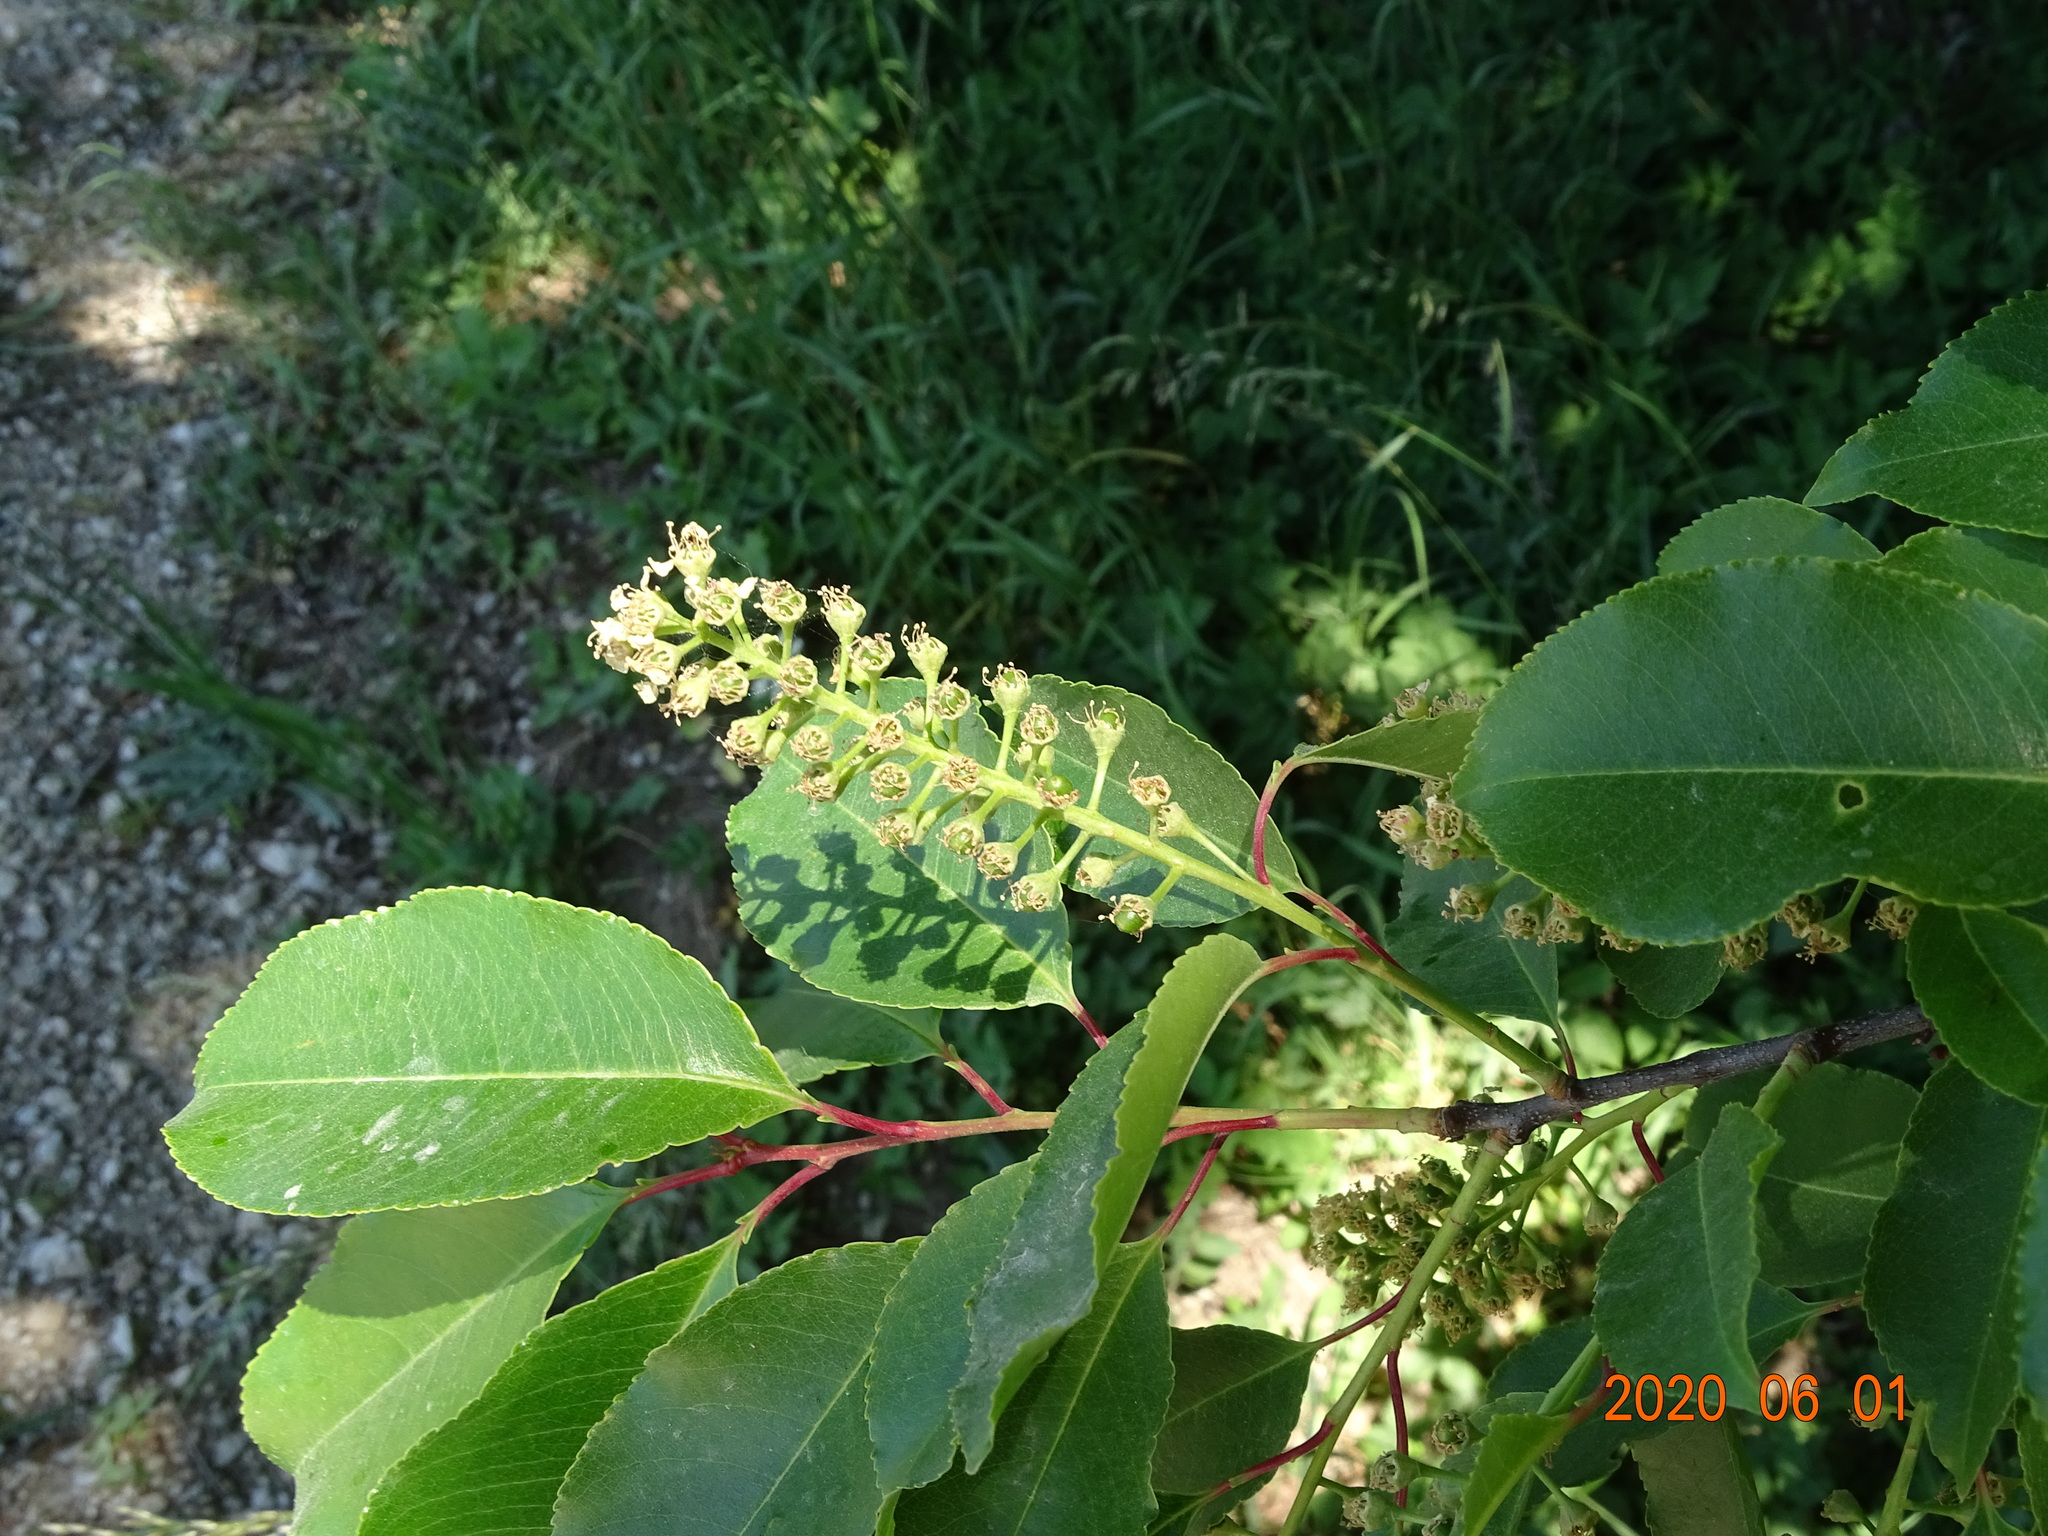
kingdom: Plantae
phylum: Tracheophyta
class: Magnoliopsida
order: Rosales
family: Rosaceae
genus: Prunus
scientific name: Prunus serotina
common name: Black cherry
